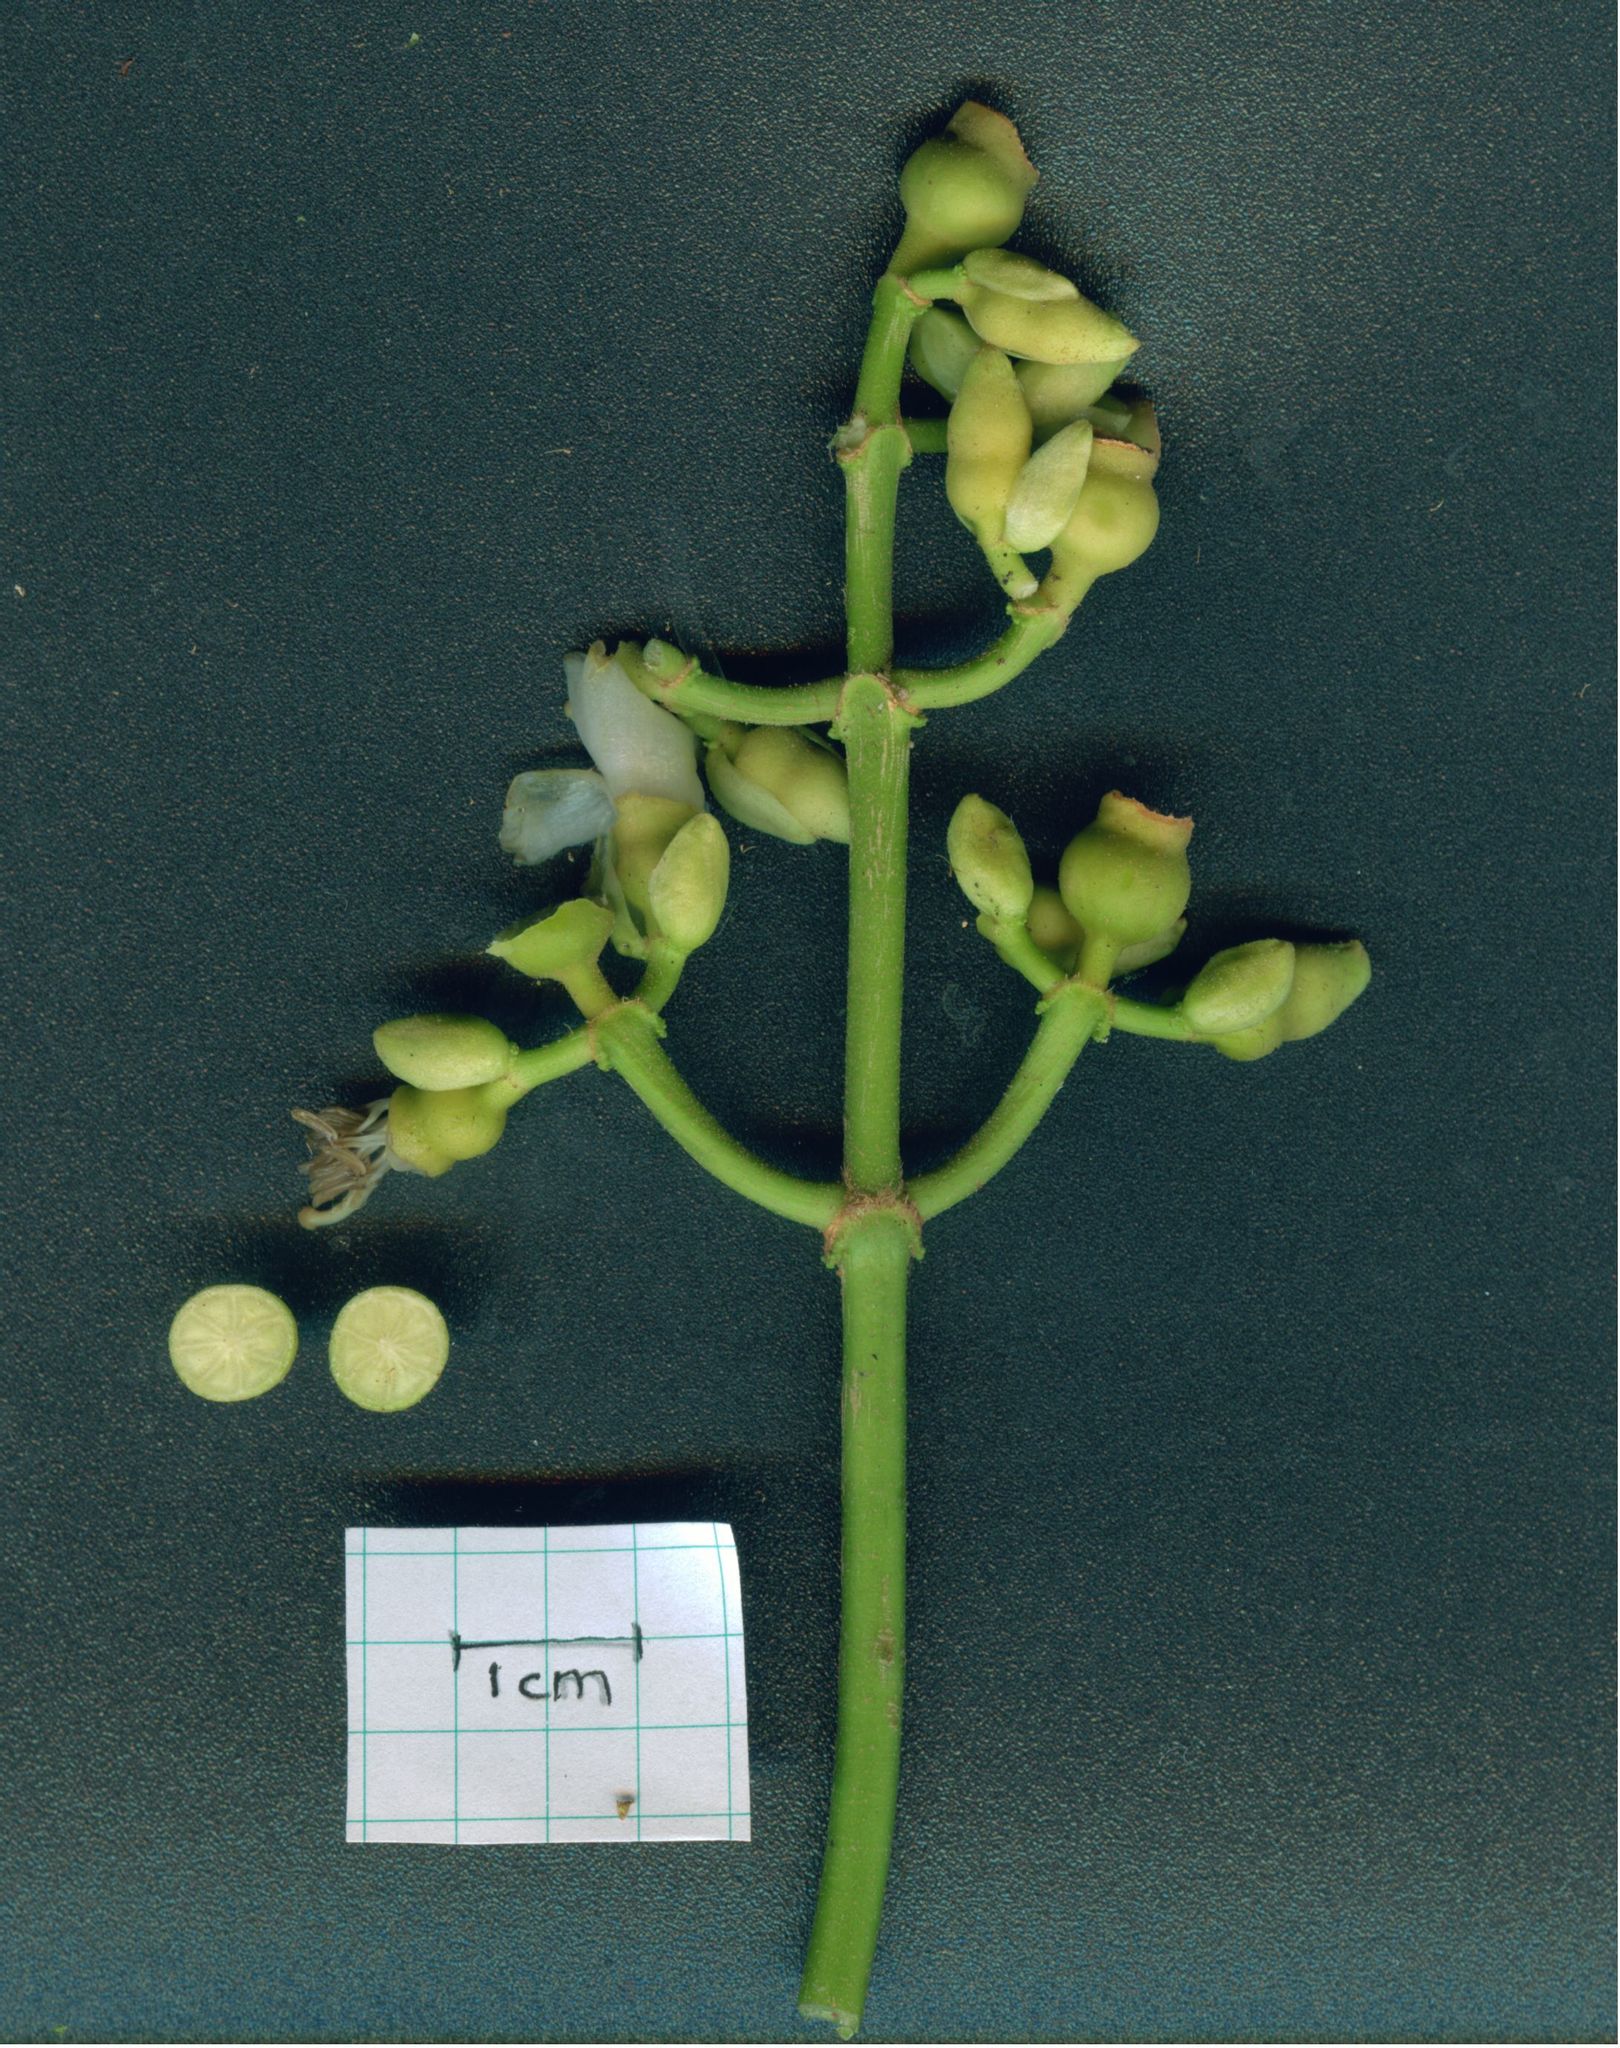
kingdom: Plantae
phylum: Tracheophyta
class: Magnoliopsida
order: Myrtales
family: Melastomataceae
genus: Miconia
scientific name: Miconia lasiopoda
